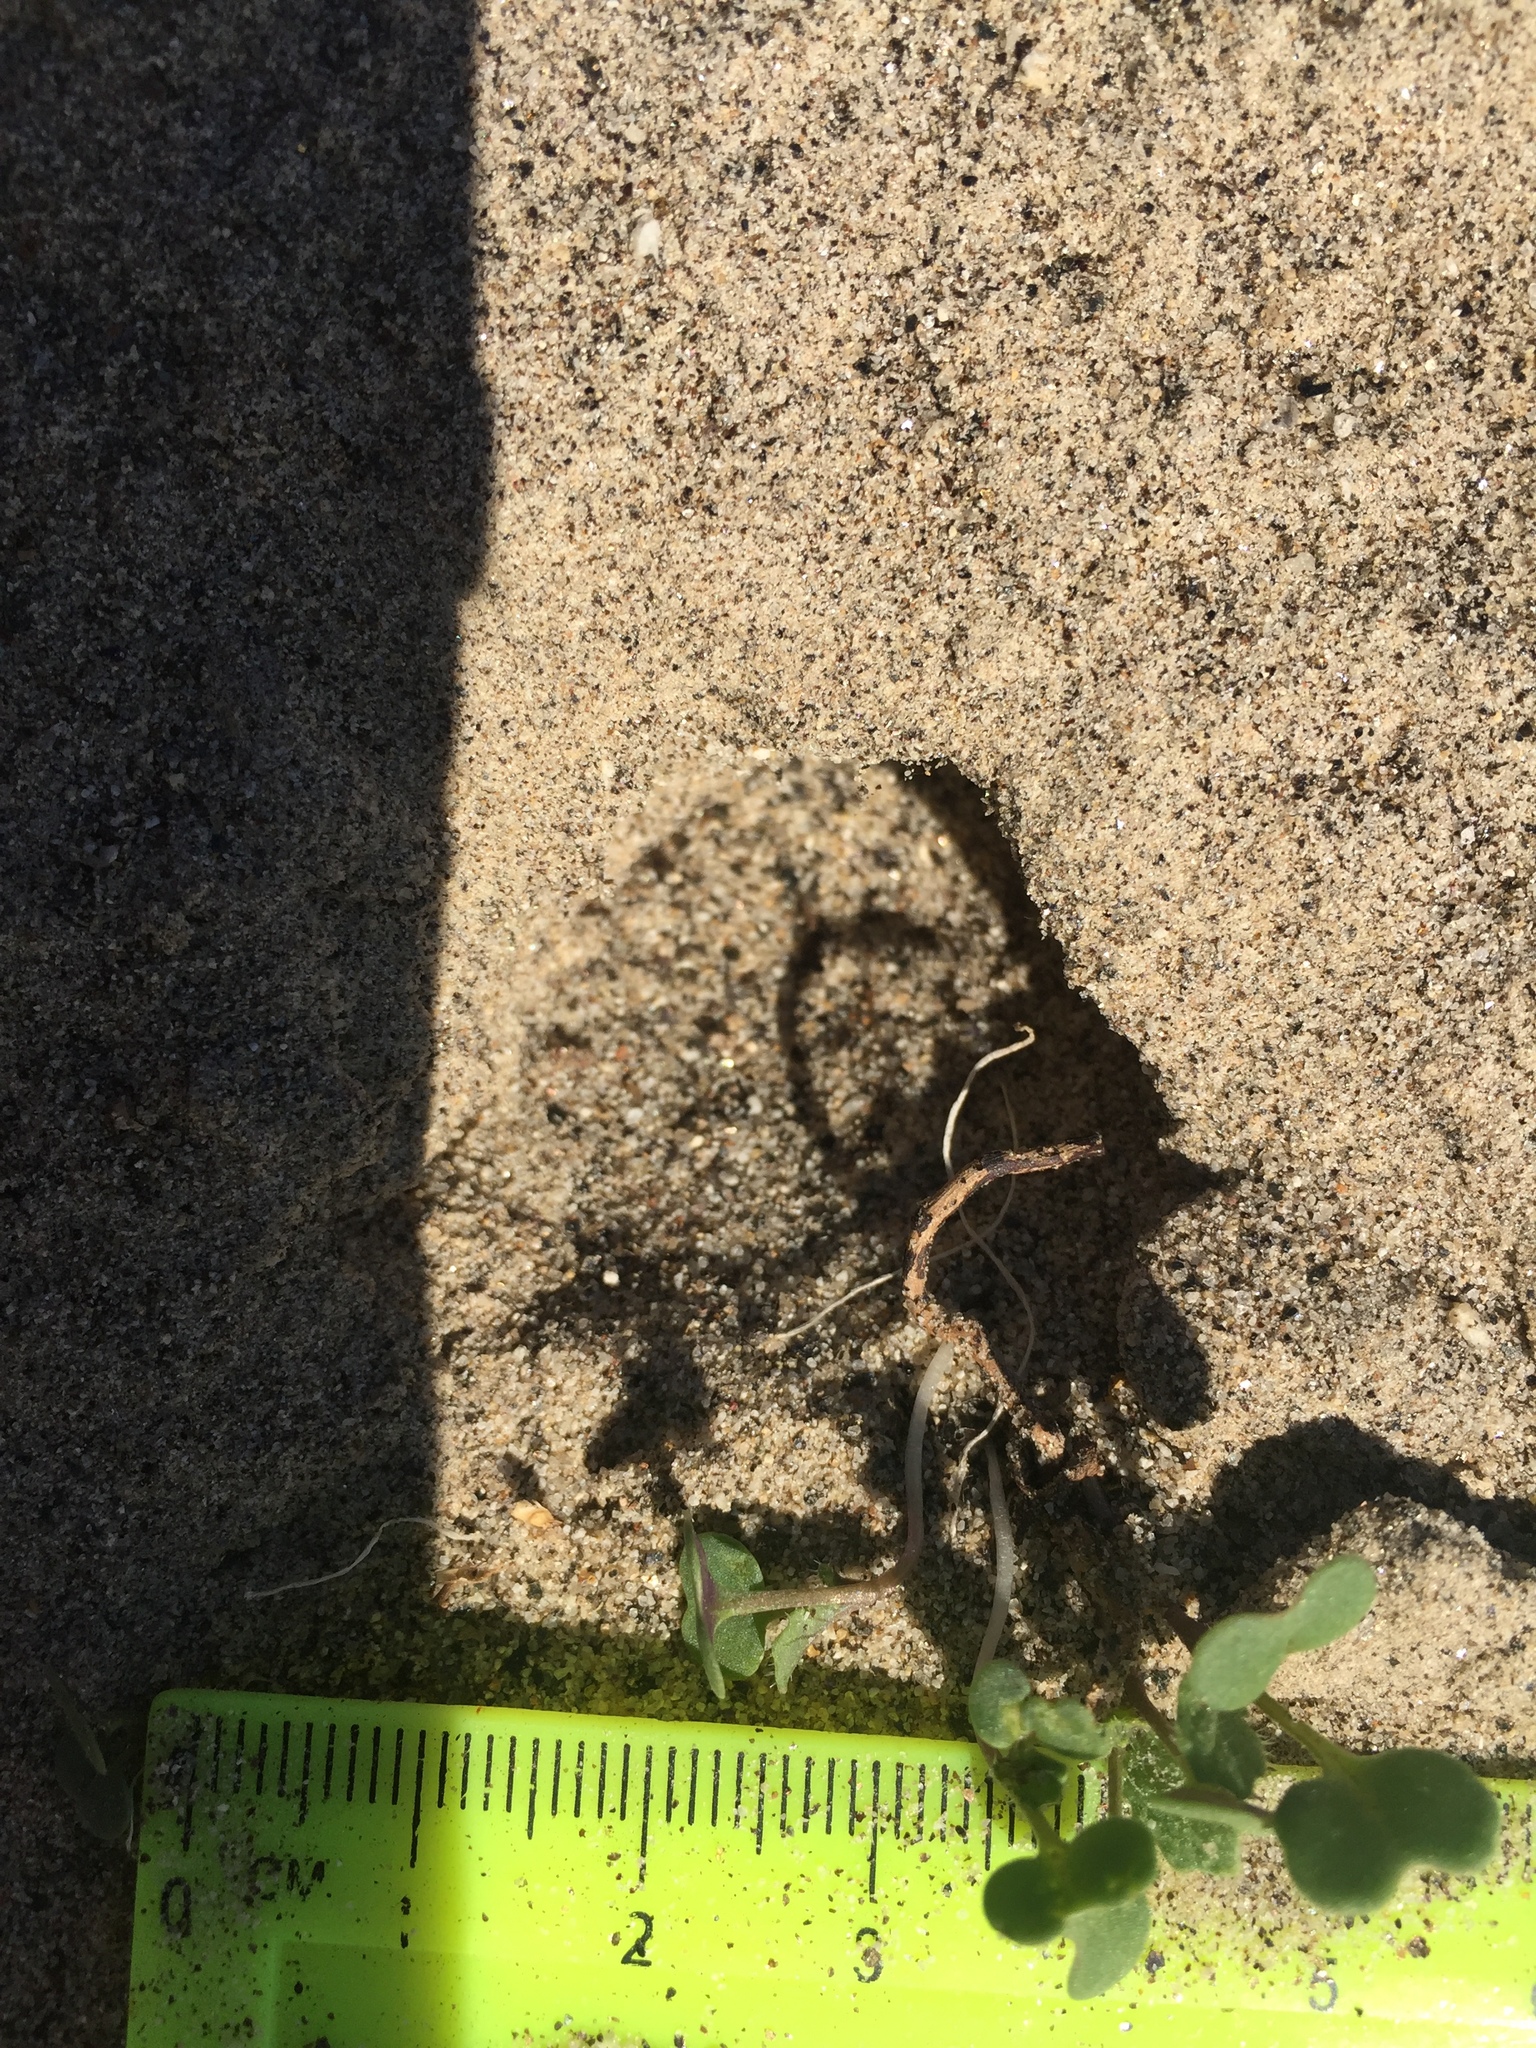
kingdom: Plantae
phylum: Tracheophyta
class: Magnoliopsida
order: Brassicales
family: Brassicaceae
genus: Brassica
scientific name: Brassica tournefortii
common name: Pale cabbage
